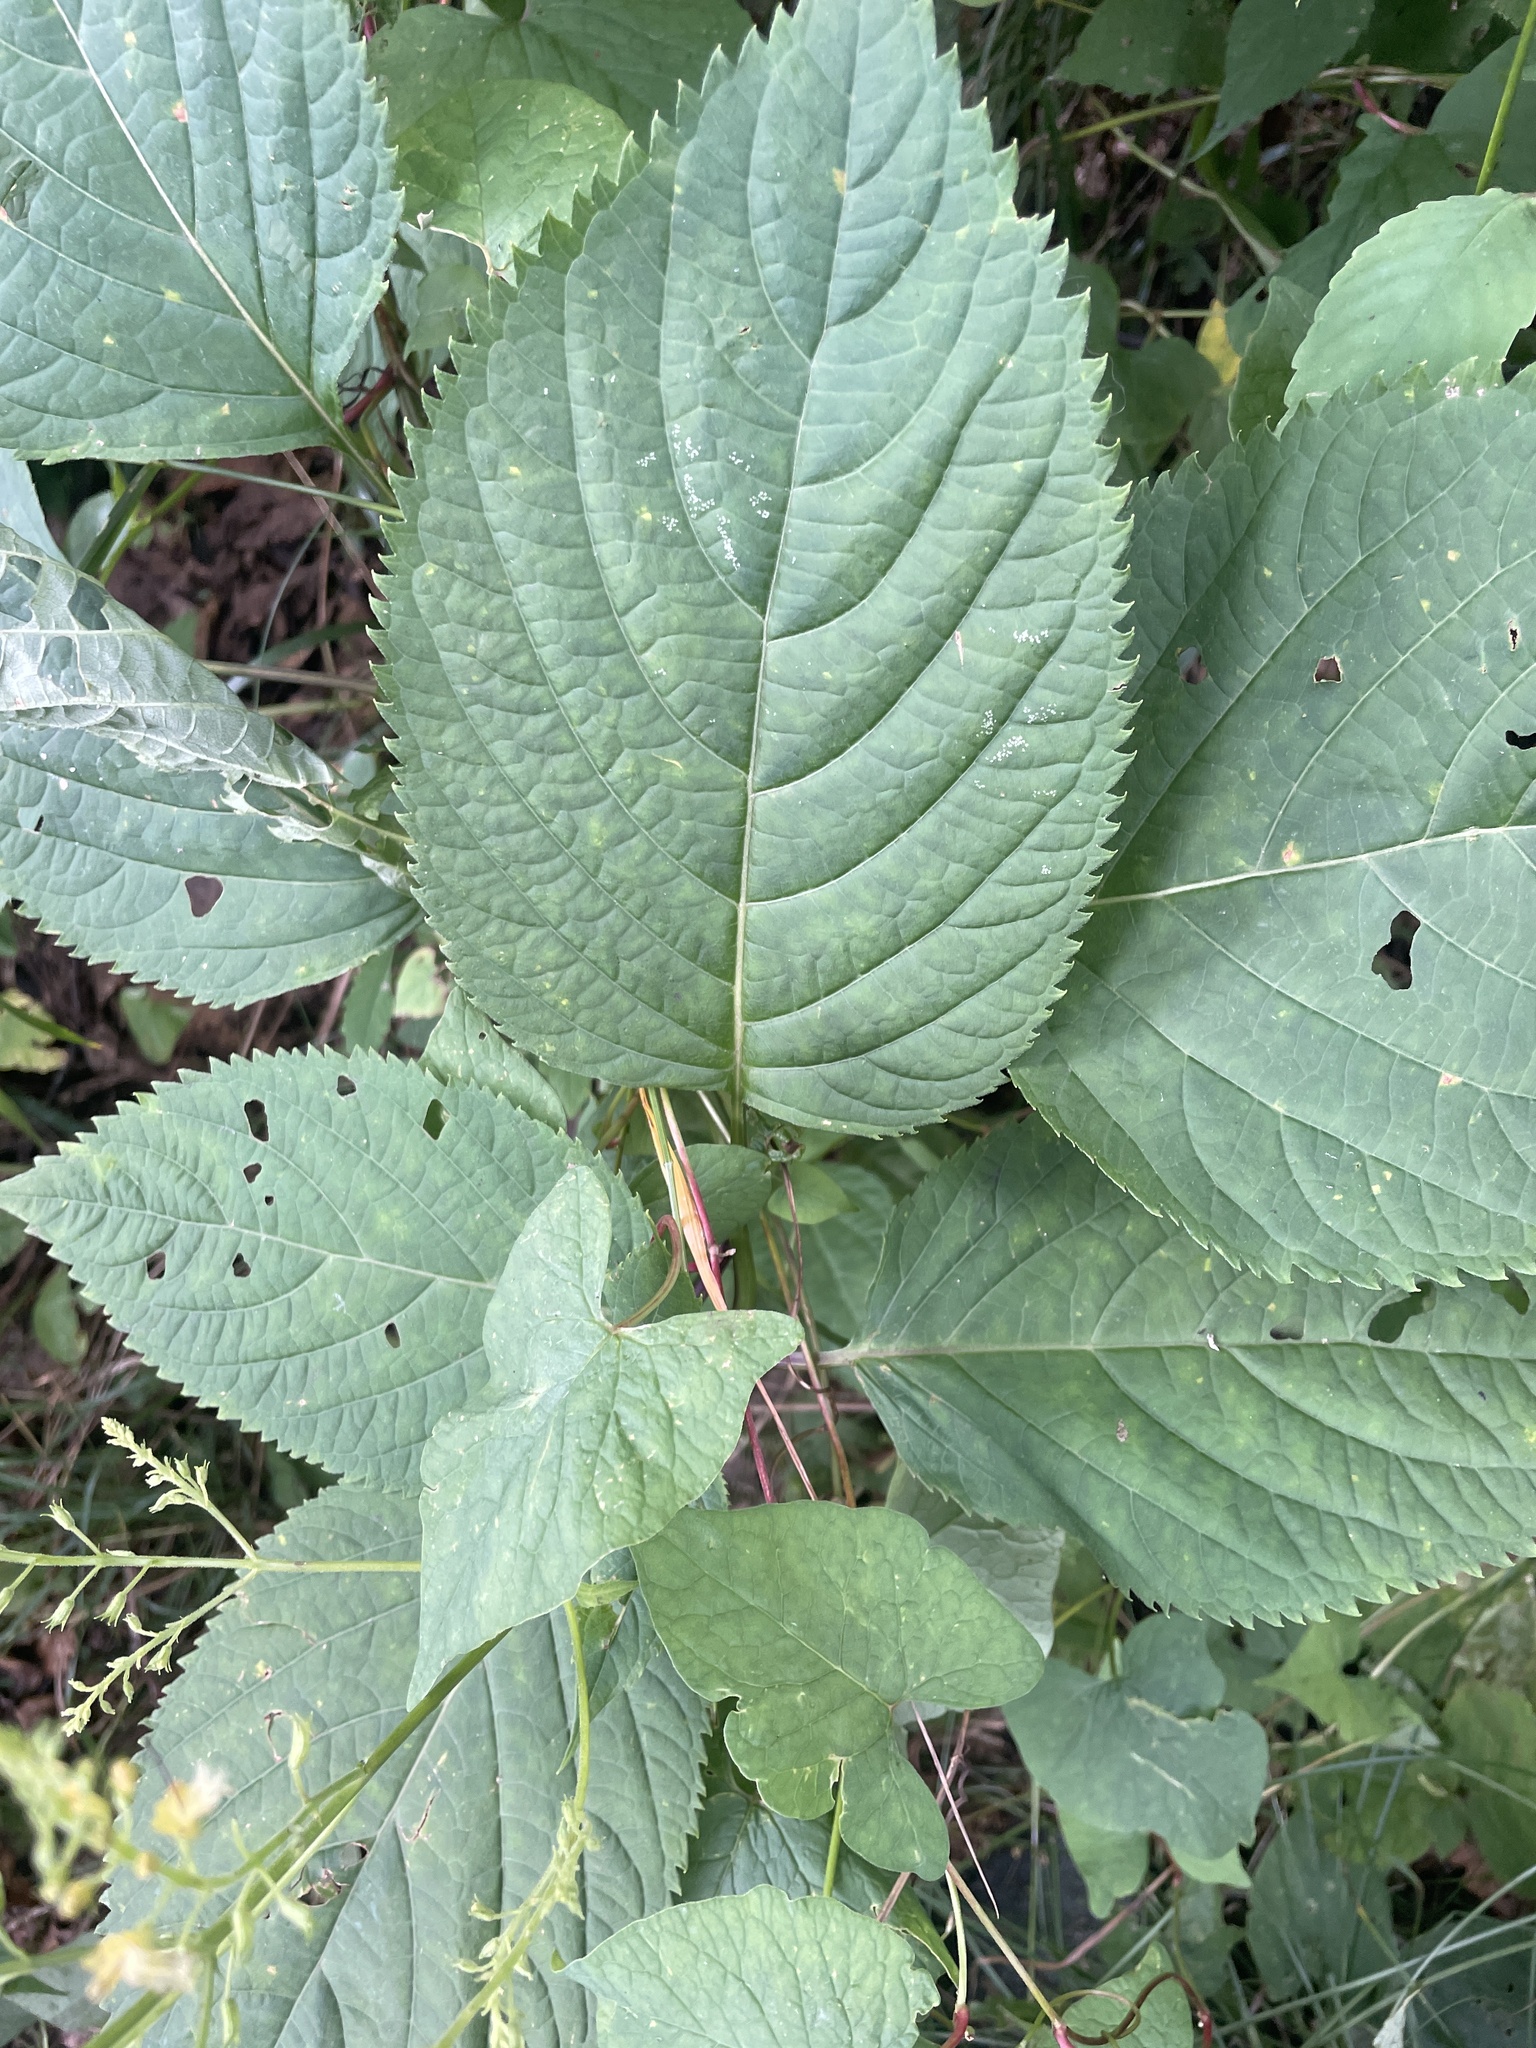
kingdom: Plantae
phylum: Tracheophyta
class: Magnoliopsida
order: Lamiales
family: Lamiaceae
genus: Collinsonia
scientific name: Collinsonia canadensis
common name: Northern horsebalm
